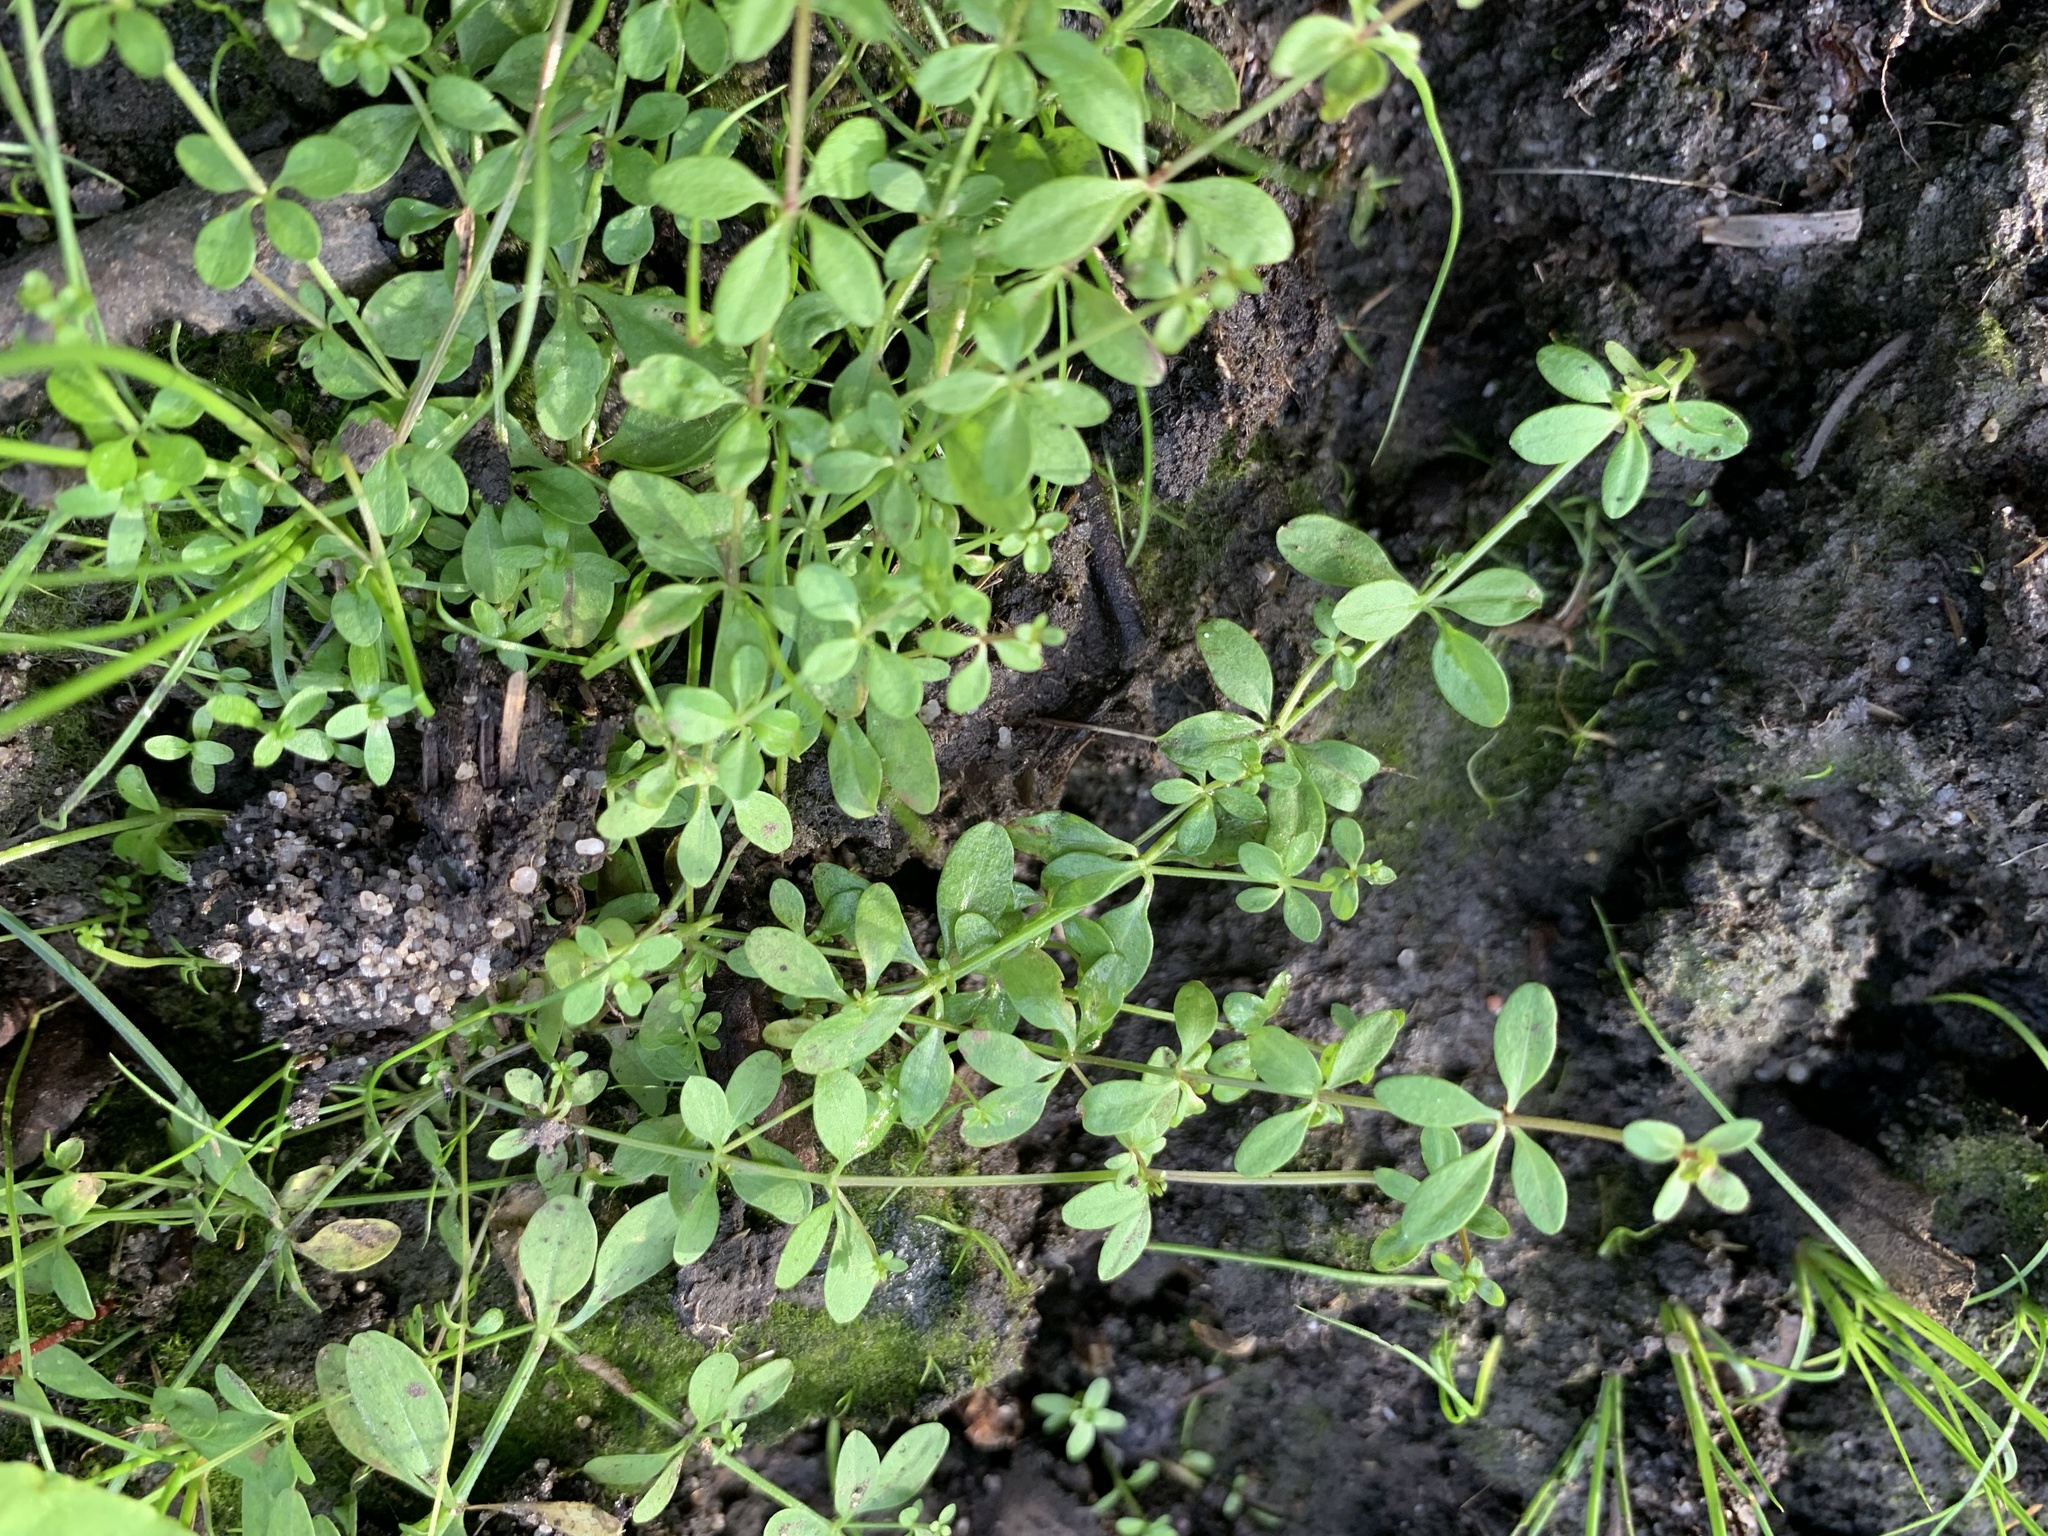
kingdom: Plantae
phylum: Tracheophyta
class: Magnoliopsida
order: Gentianales
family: Rubiaceae
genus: Galium
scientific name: Galium palustre
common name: Common marsh-bedstraw
